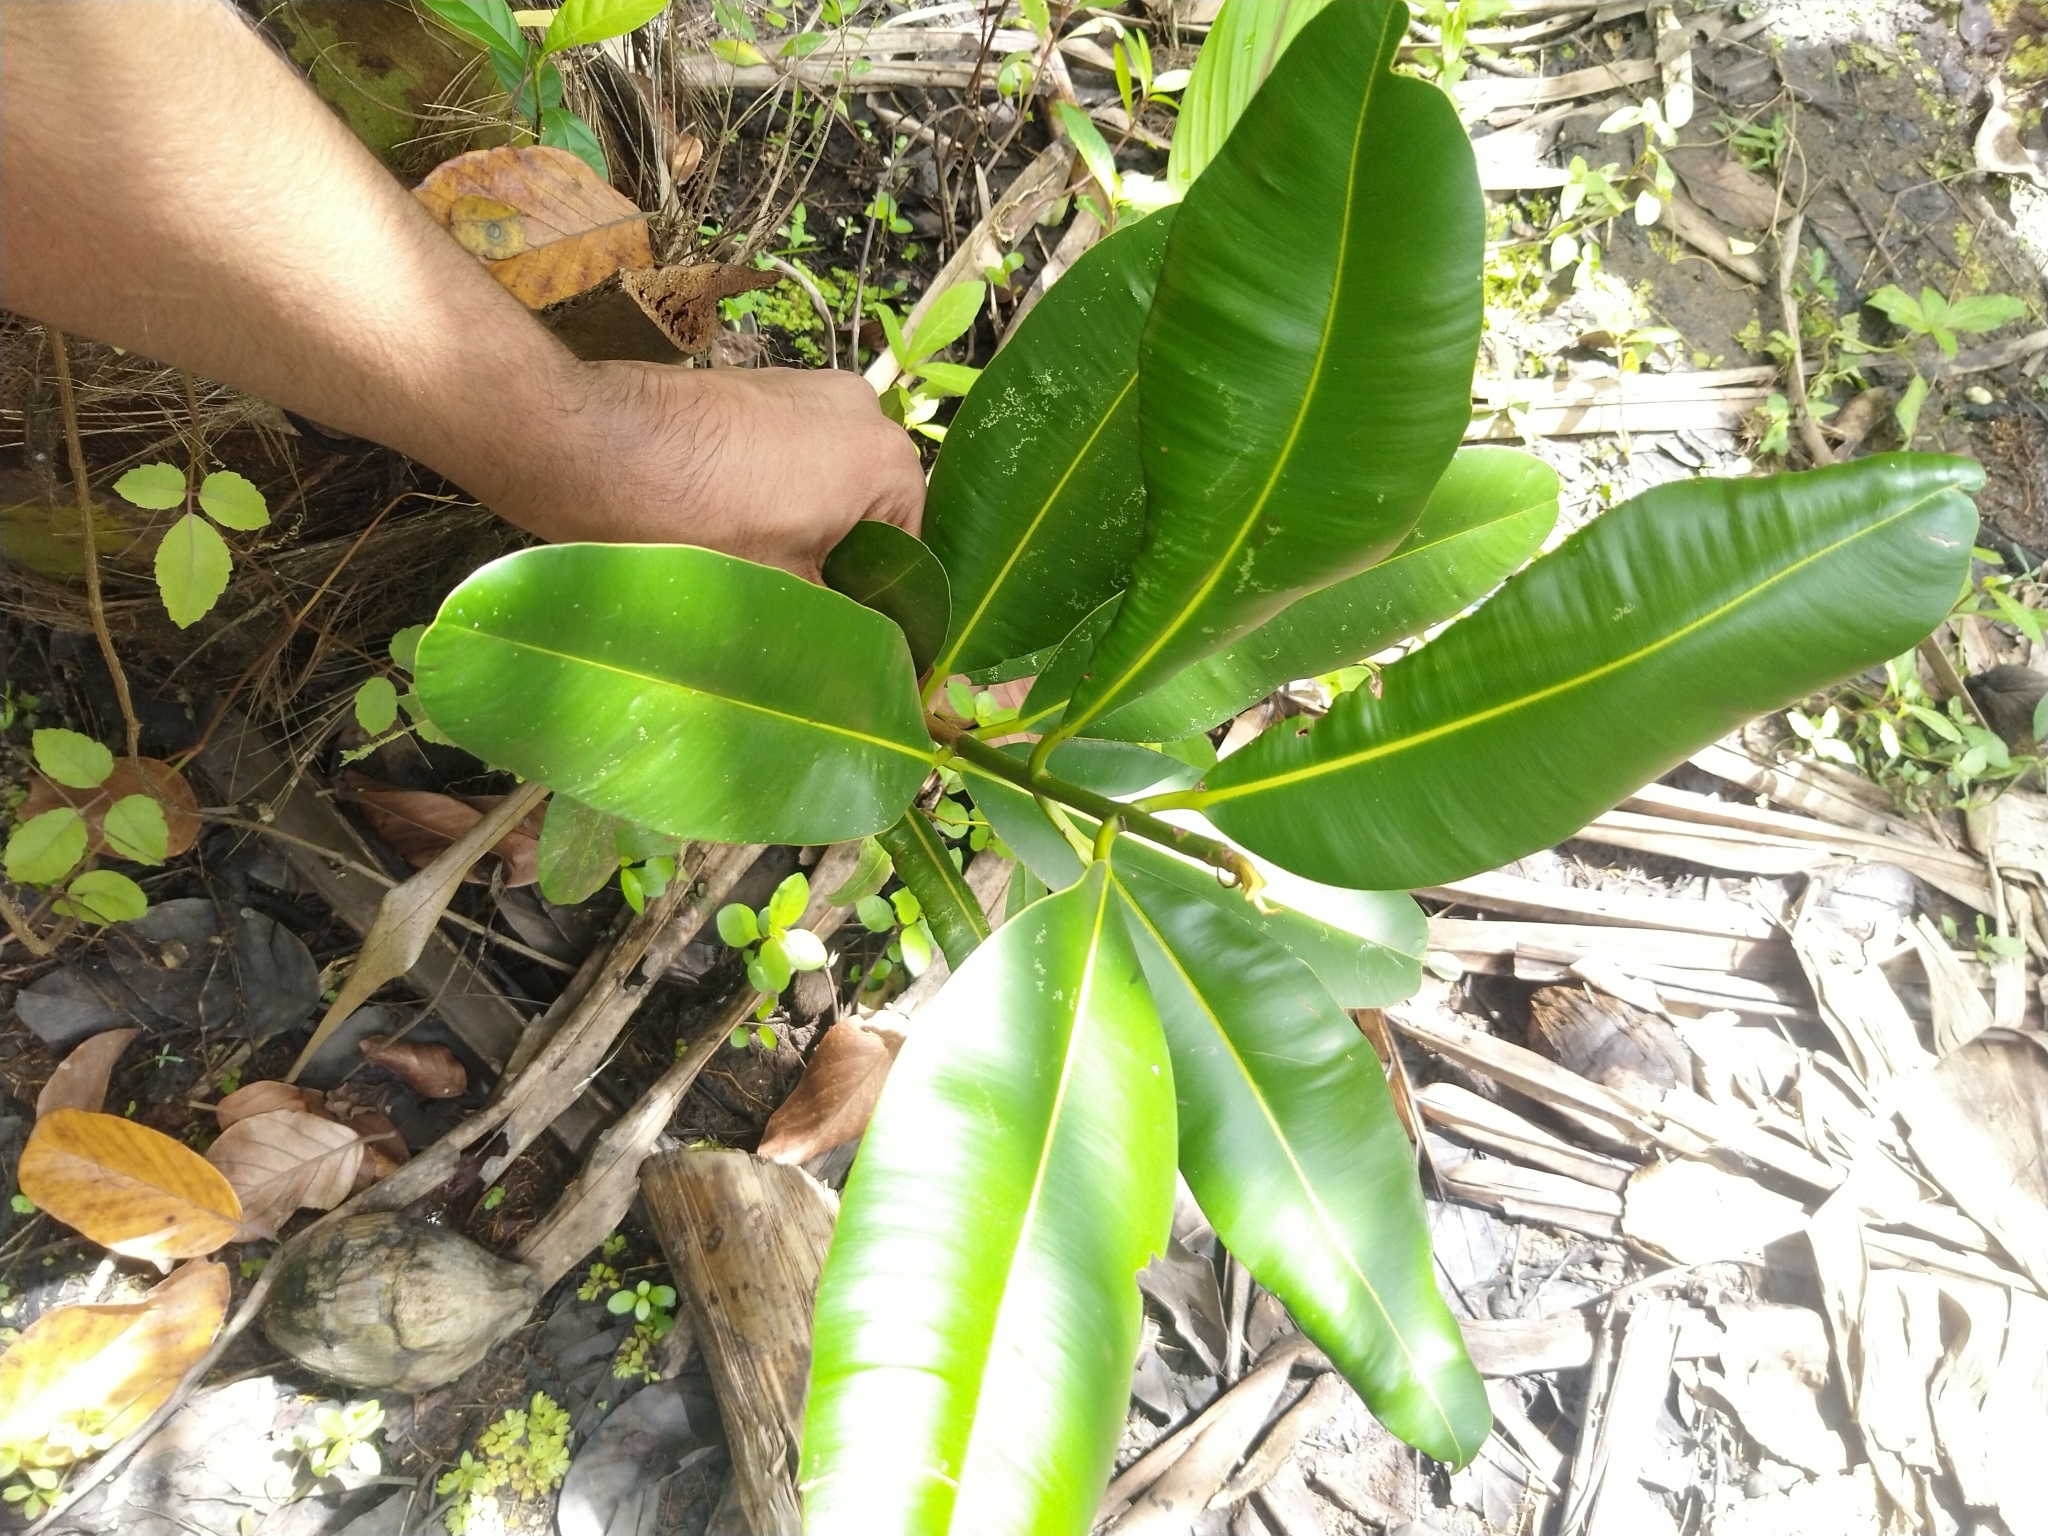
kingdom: Plantae
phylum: Tracheophyta
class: Magnoliopsida
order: Malpighiales
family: Calophyllaceae
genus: Calophyllum
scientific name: Calophyllum inophyllum
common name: Alexandrian laurel
